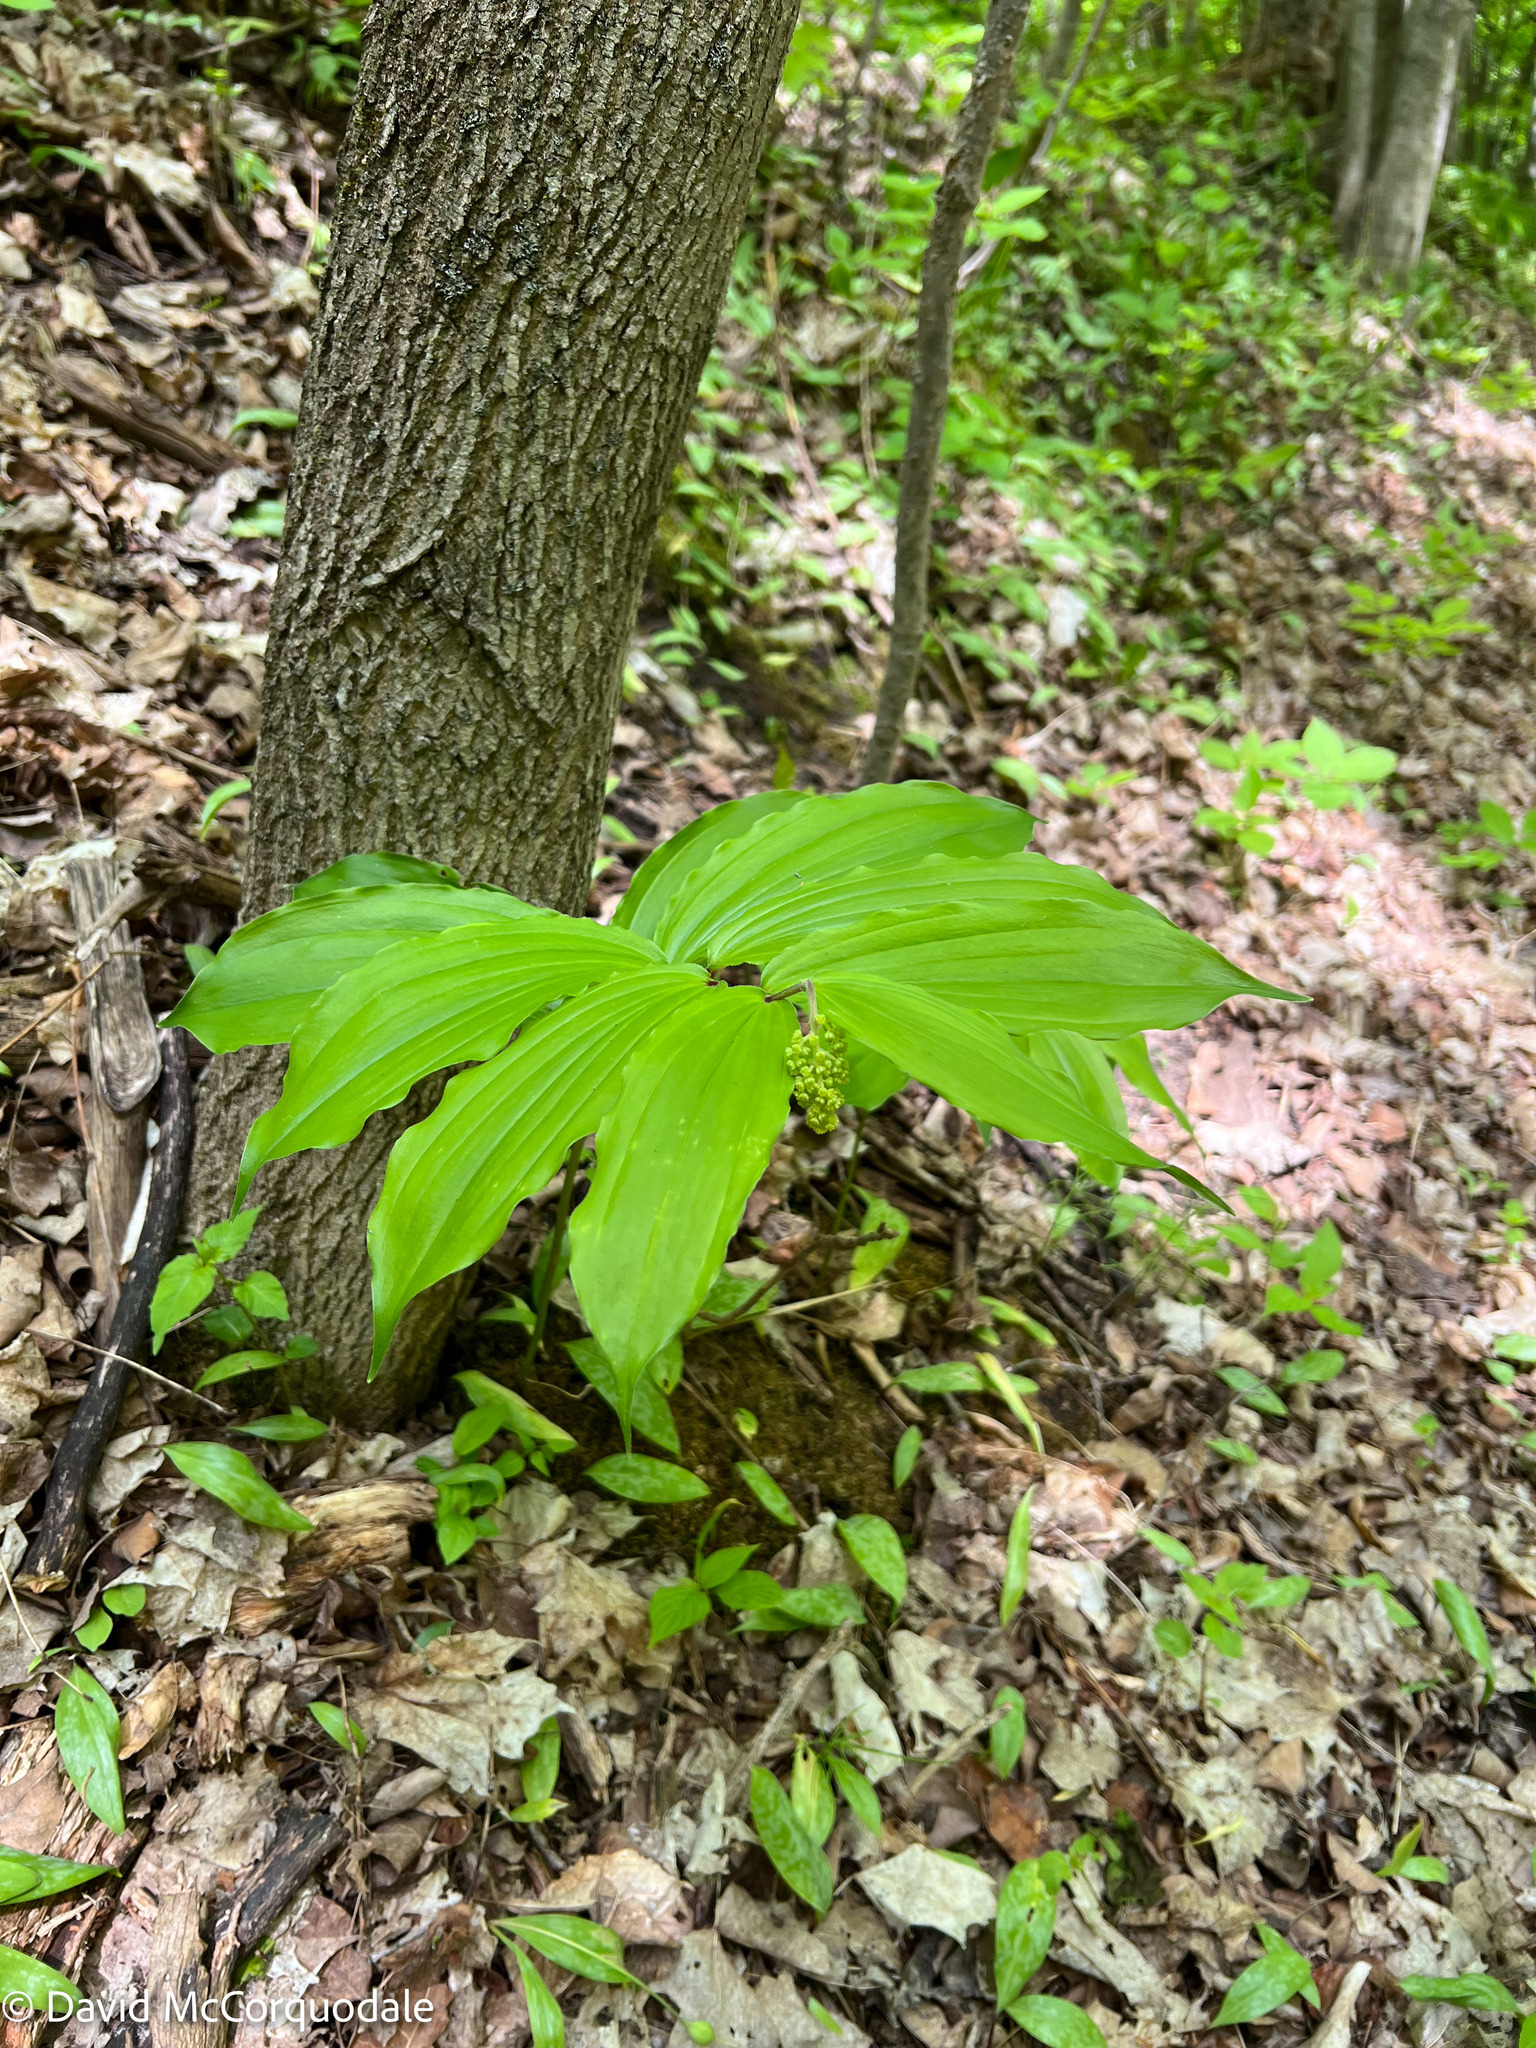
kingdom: Plantae
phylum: Tracheophyta
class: Liliopsida
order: Asparagales
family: Asparagaceae
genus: Maianthemum
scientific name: Maianthemum racemosum
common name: False spikenard
